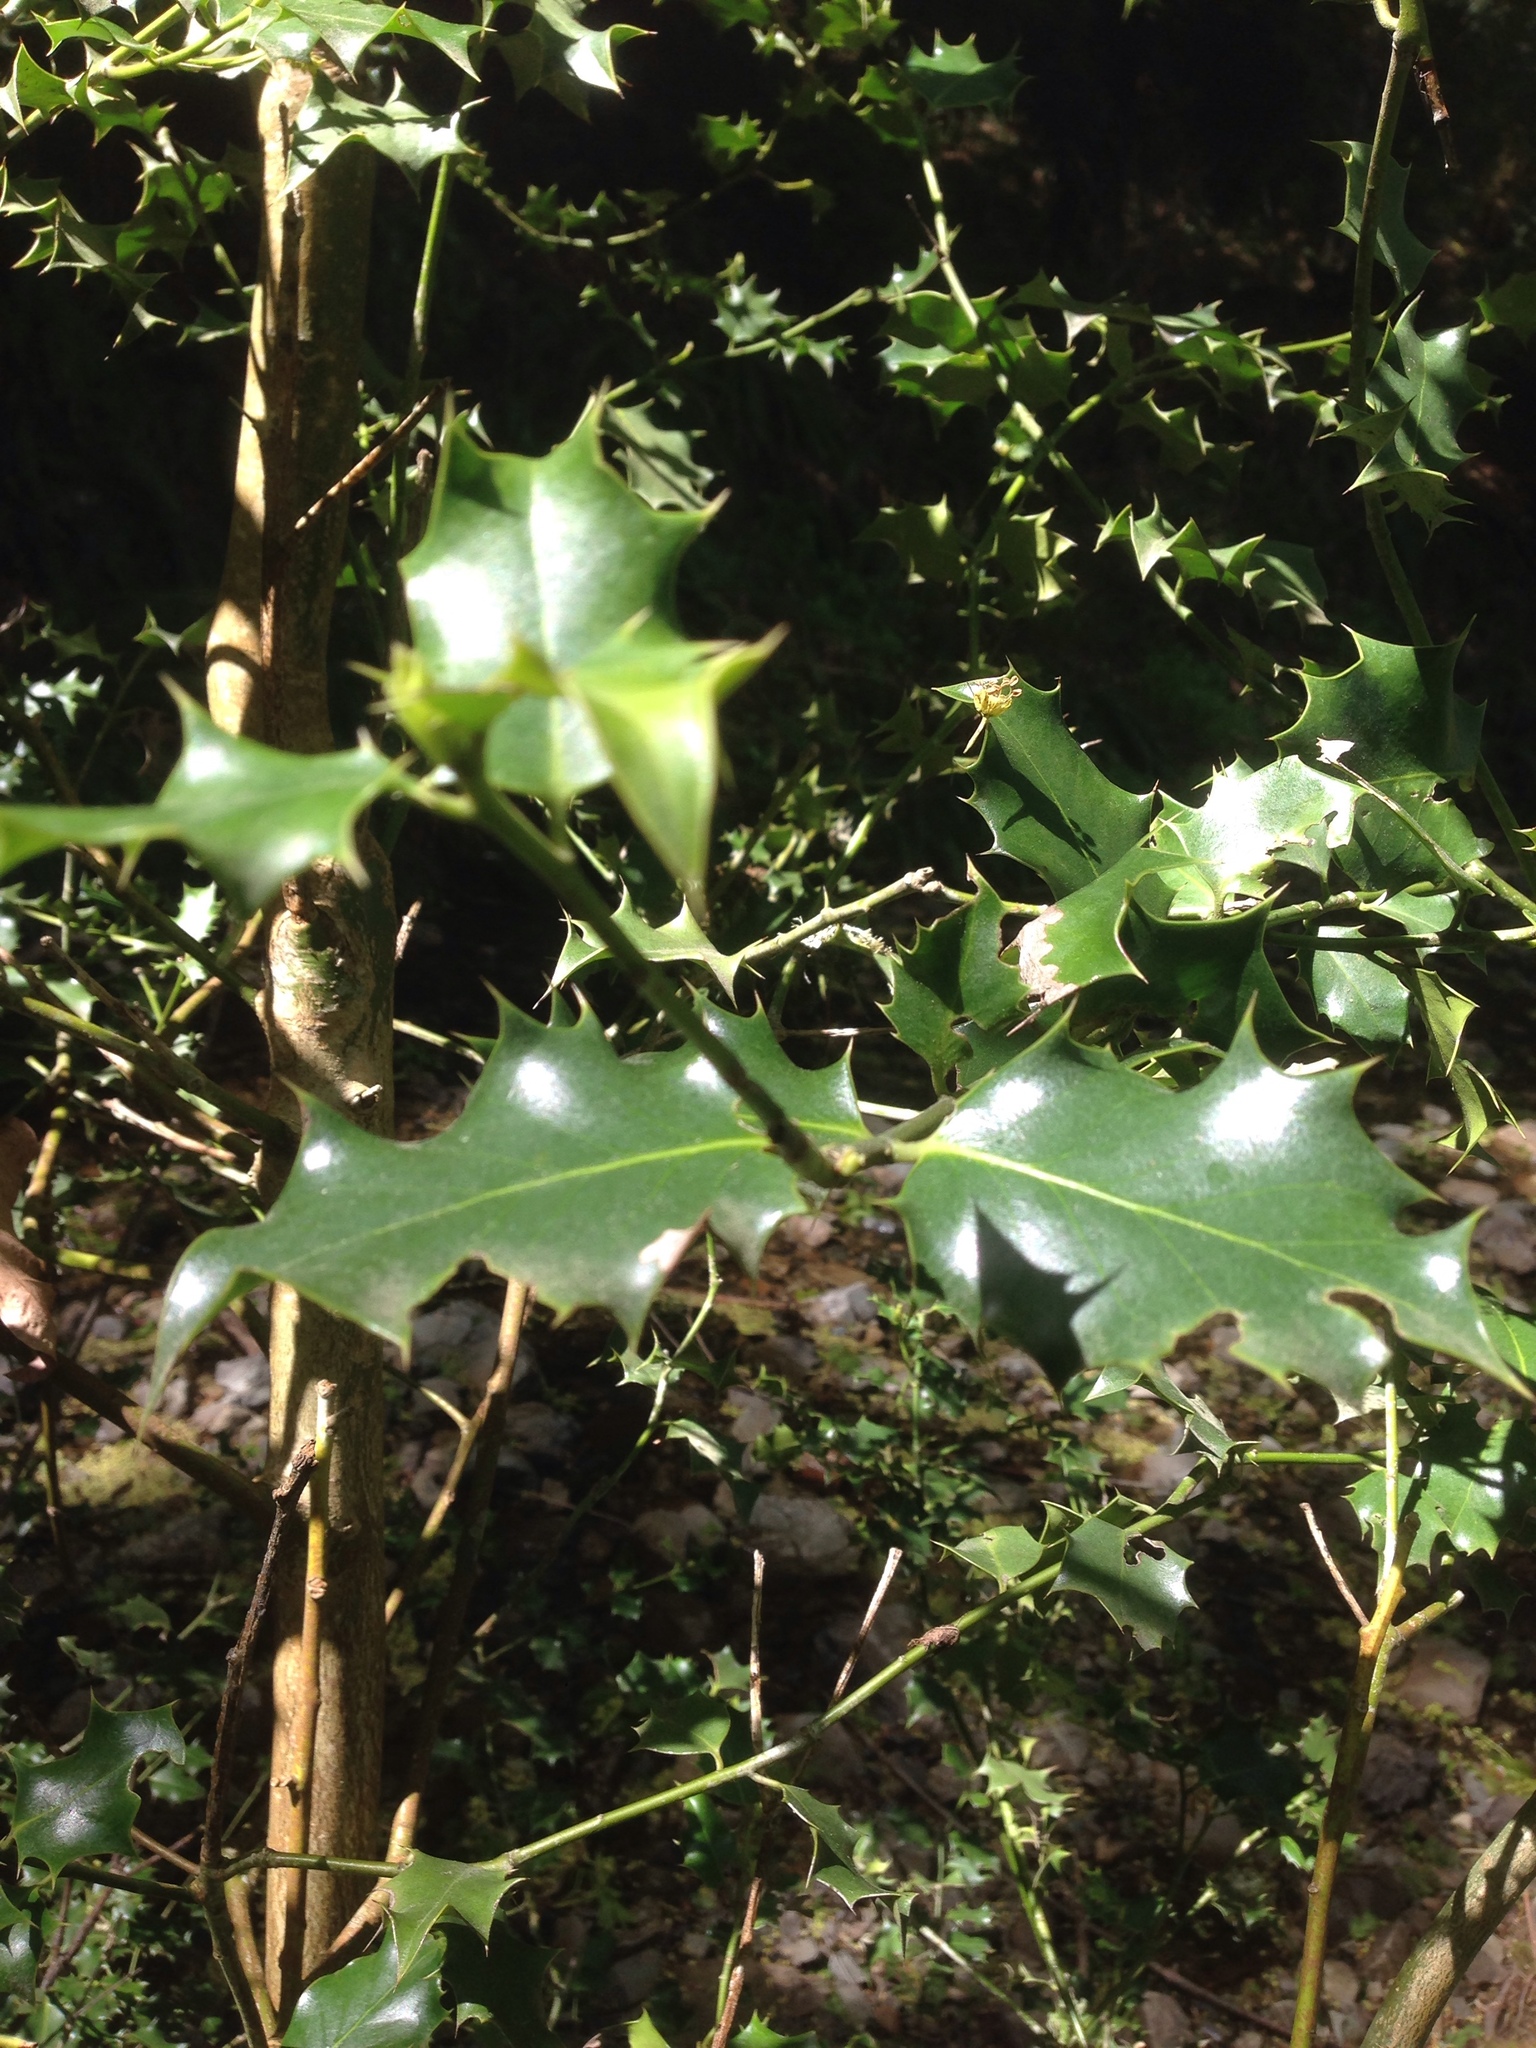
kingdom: Plantae
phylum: Tracheophyta
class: Magnoliopsida
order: Aquifoliales
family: Aquifoliaceae
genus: Ilex
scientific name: Ilex aquifolium
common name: English holly
